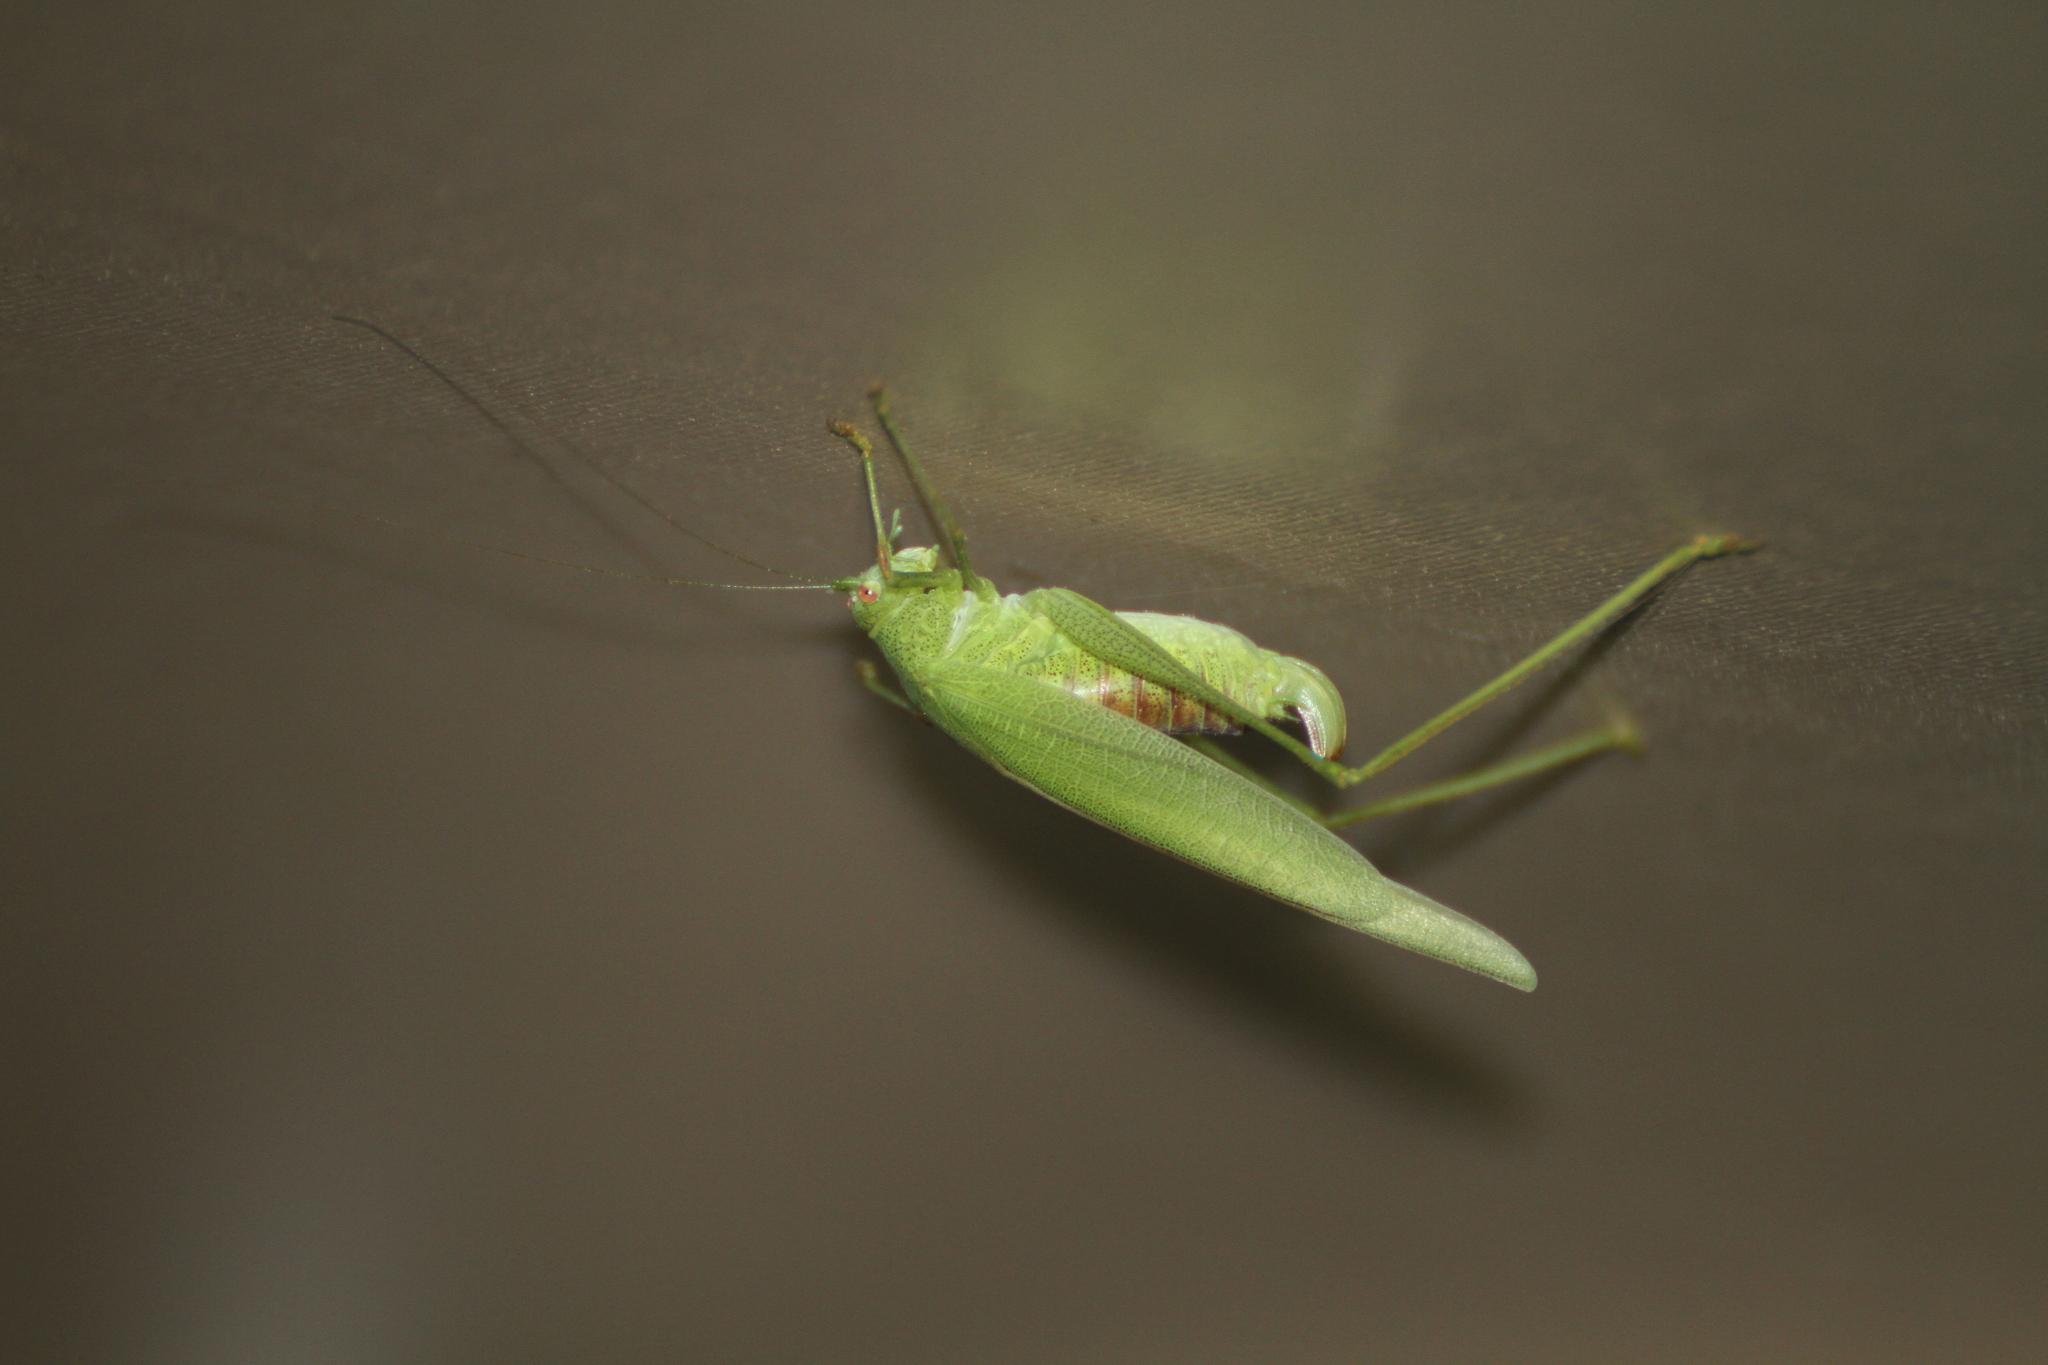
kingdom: Animalia
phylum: Arthropoda
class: Insecta
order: Orthoptera
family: Tettigoniidae
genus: Phaneroptera
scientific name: Phaneroptera nana
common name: Southern sickle bush-cricket
